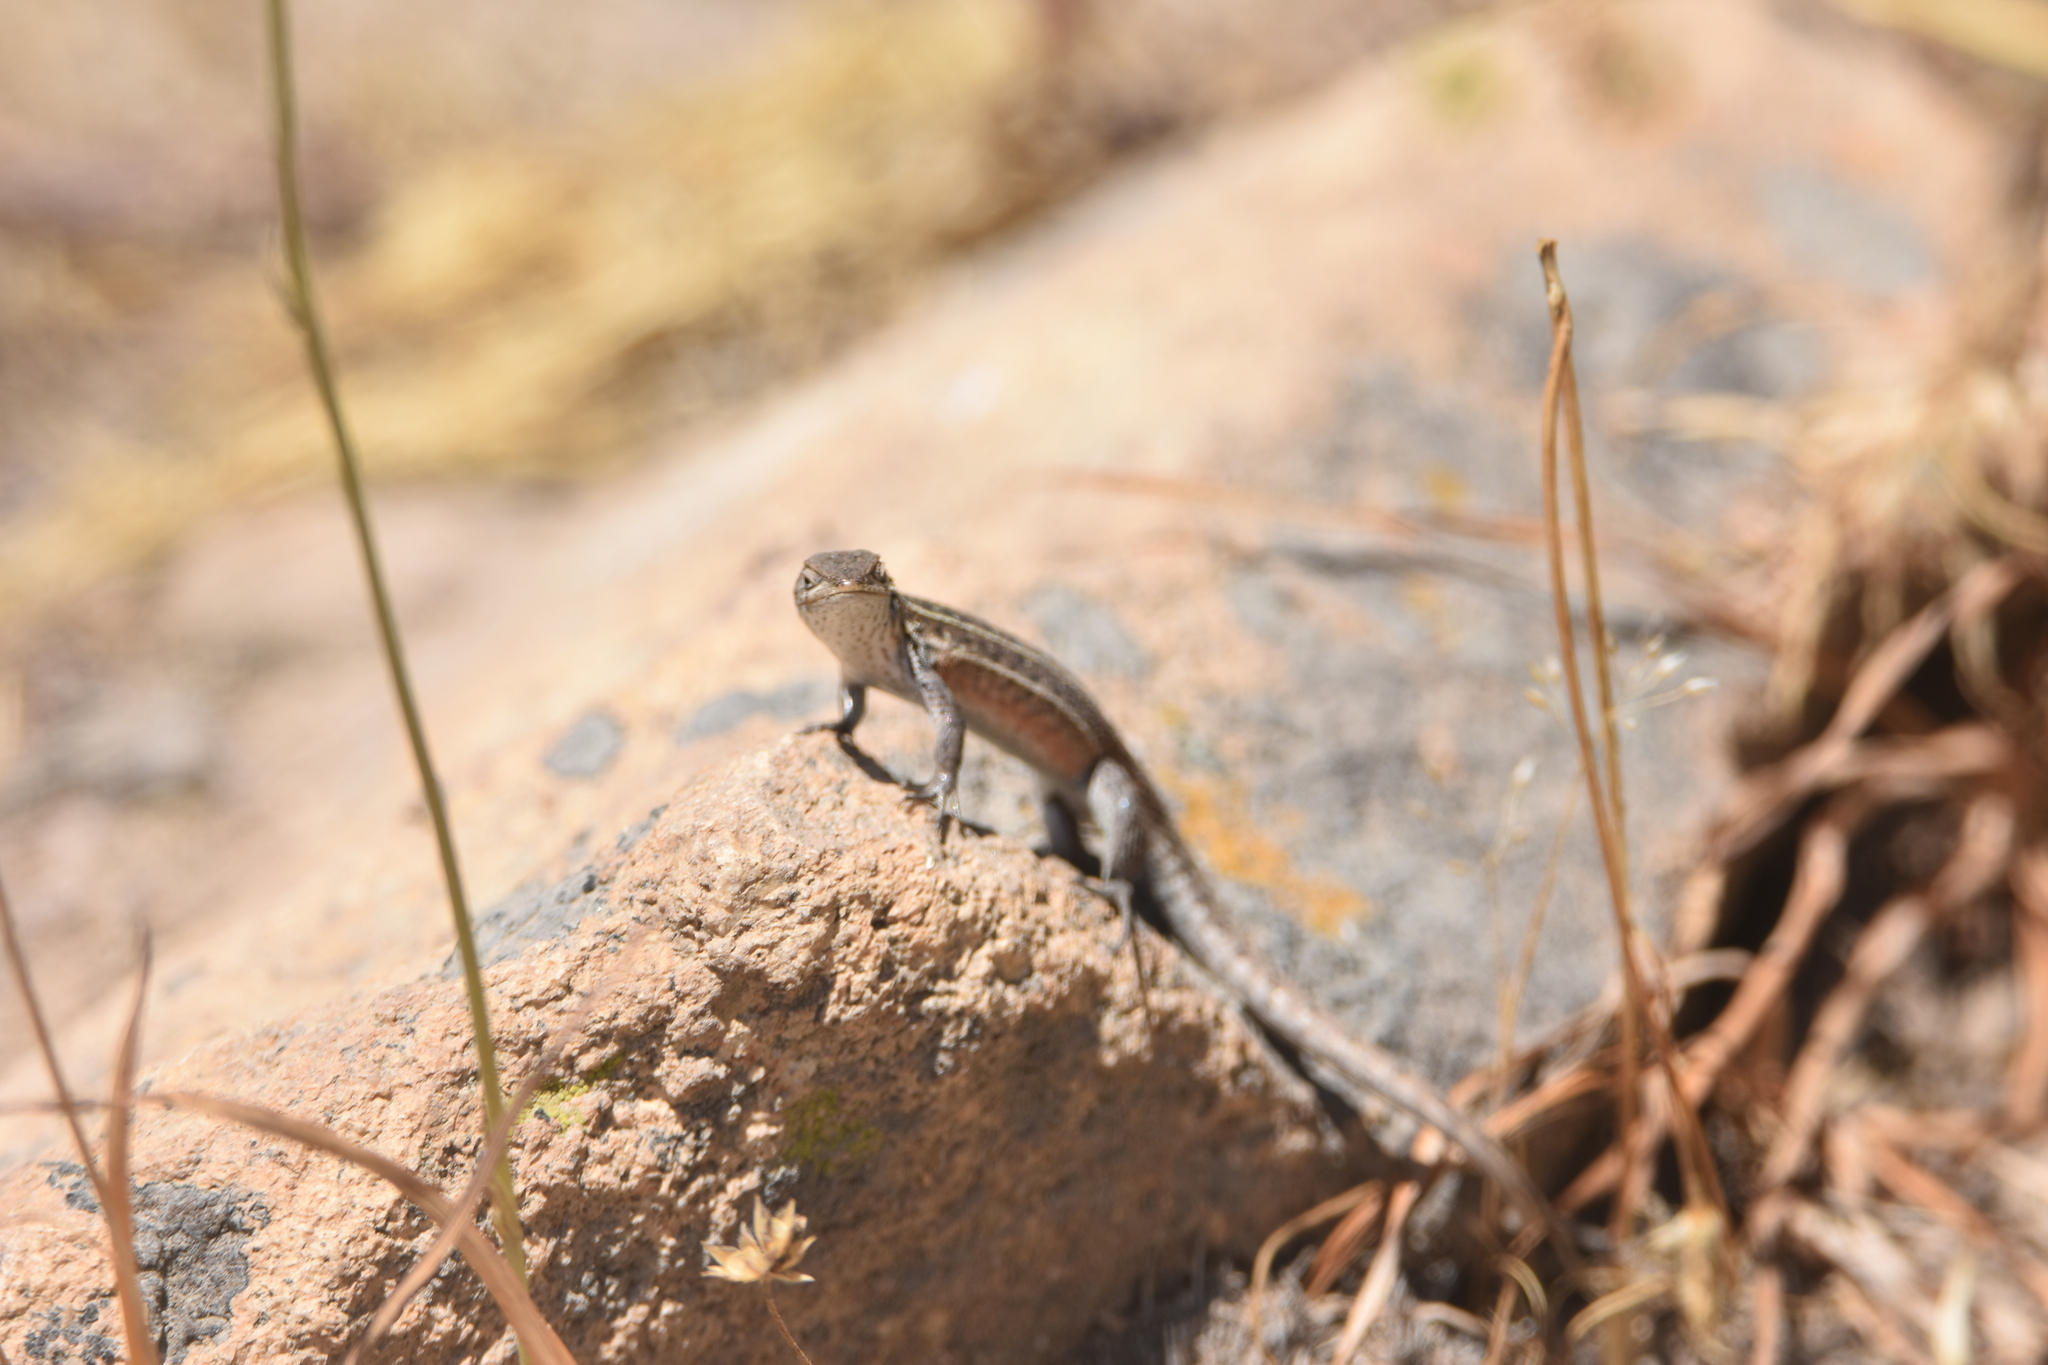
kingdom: Animalia
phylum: Chordata
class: Squamata
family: Liolaemidae
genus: Liolaemus
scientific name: Liolaemus lemniscatus
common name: Wreath tree iguana
